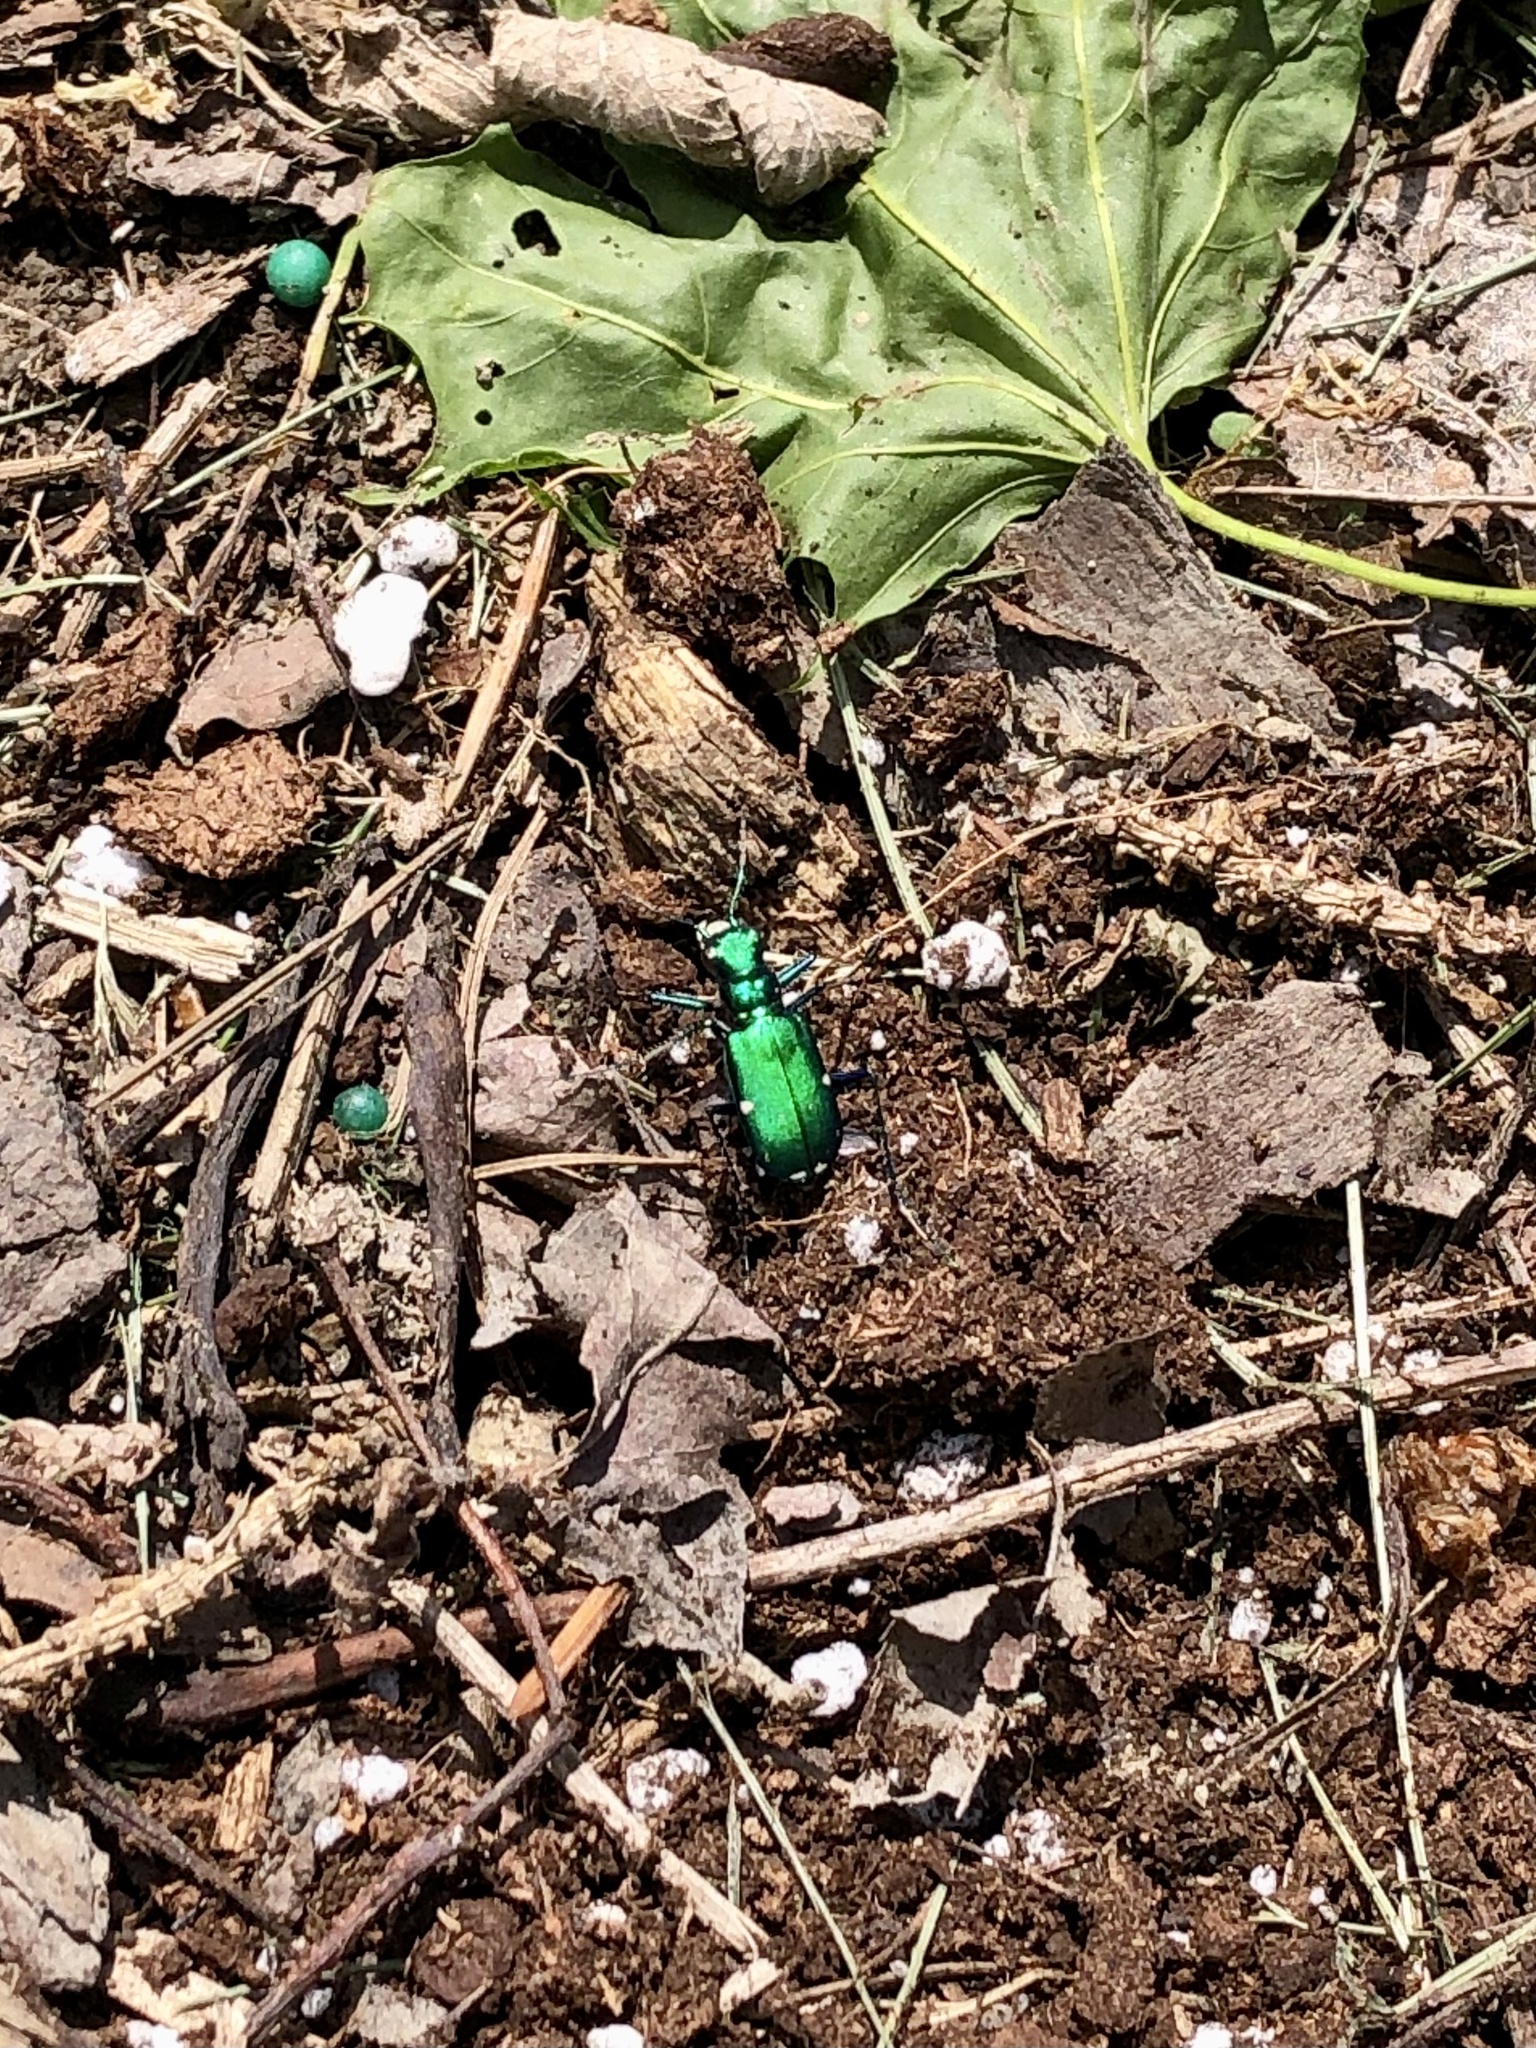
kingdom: Animalia
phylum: Arthropoda
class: Insecta
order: Coleoptera
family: Carabidae
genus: Cicindela
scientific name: Cicindela sexguttata
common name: Six-spotted tiger beetle
